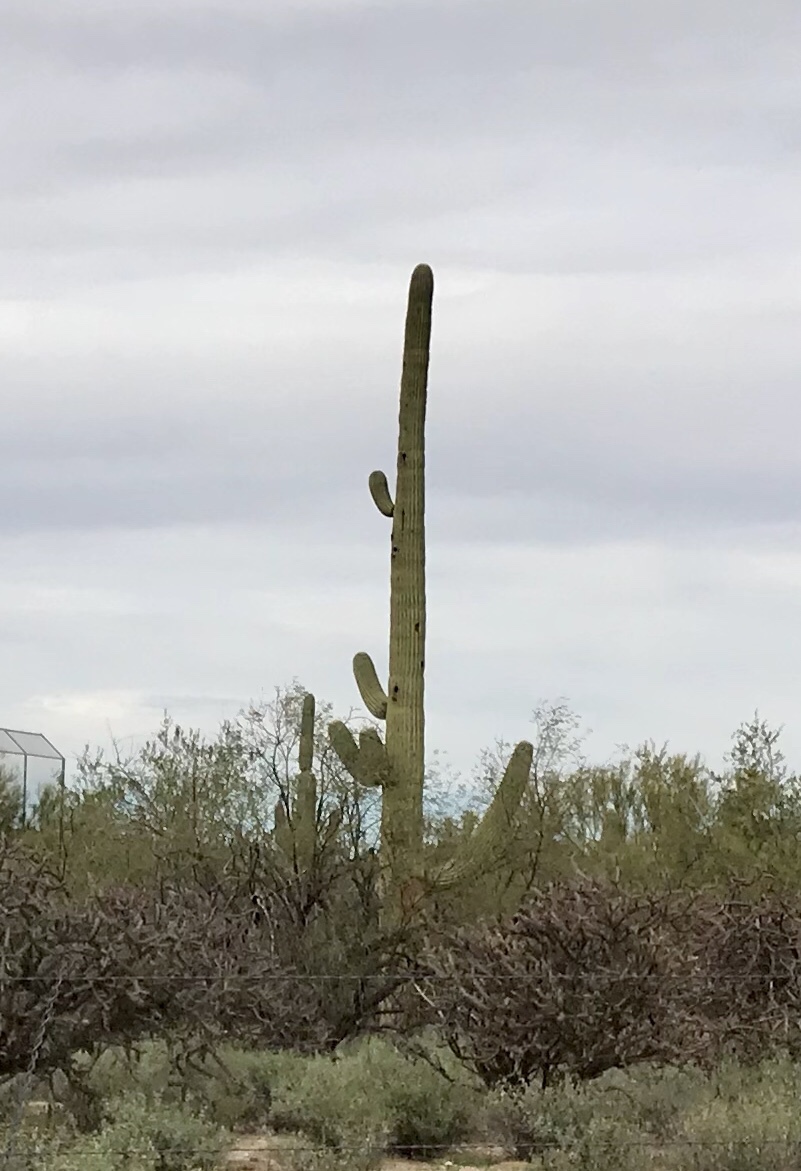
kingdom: Plantae
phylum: Tracheophyta
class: Magnoliopsida
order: Caryophyllales
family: Cactaceae
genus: Carnegiea
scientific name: Carnegiea gigantea
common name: Saguaro
